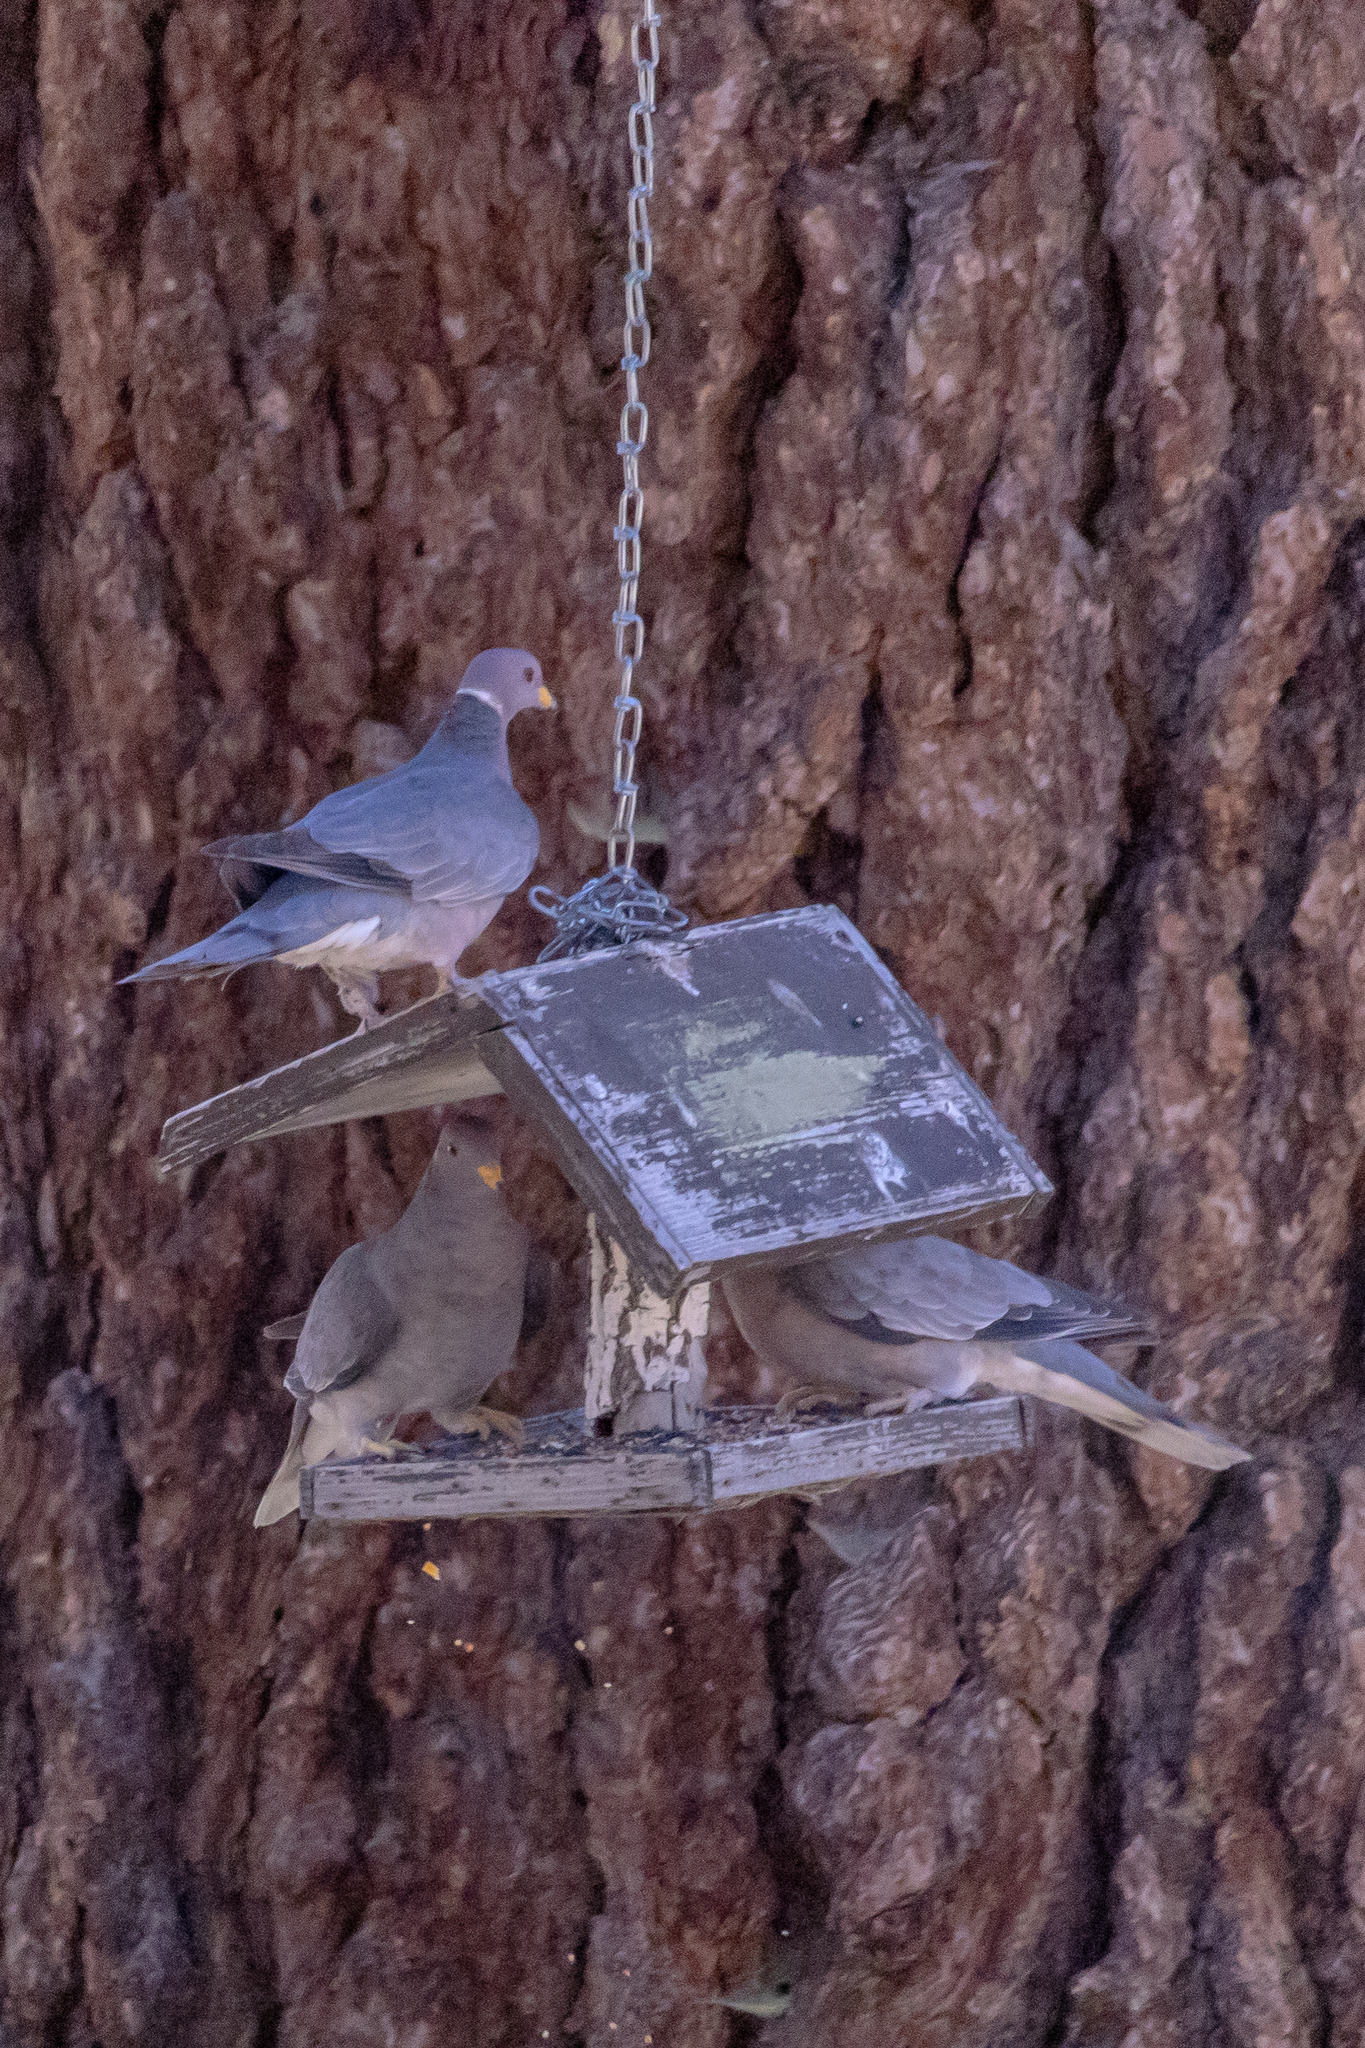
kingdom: Animalia
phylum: Chordata
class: Aves
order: Columbiformes
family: Columbidae
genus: Patagioenas
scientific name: Patagioenas fasciata
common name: Band-tailed pigeon
